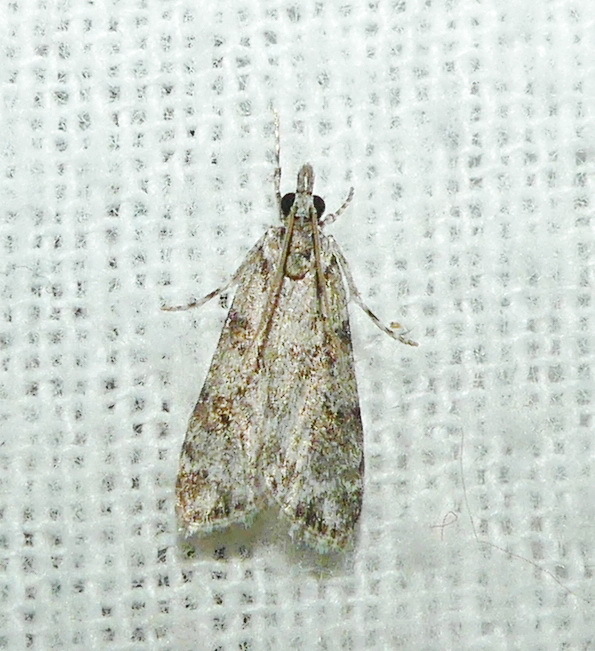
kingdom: Animalia
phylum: Arthropoda
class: Insecta
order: Lepidoptera
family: Crambidae
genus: Scoparia
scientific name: Scoparia biplagialis
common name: Double-striped scoparia moth
